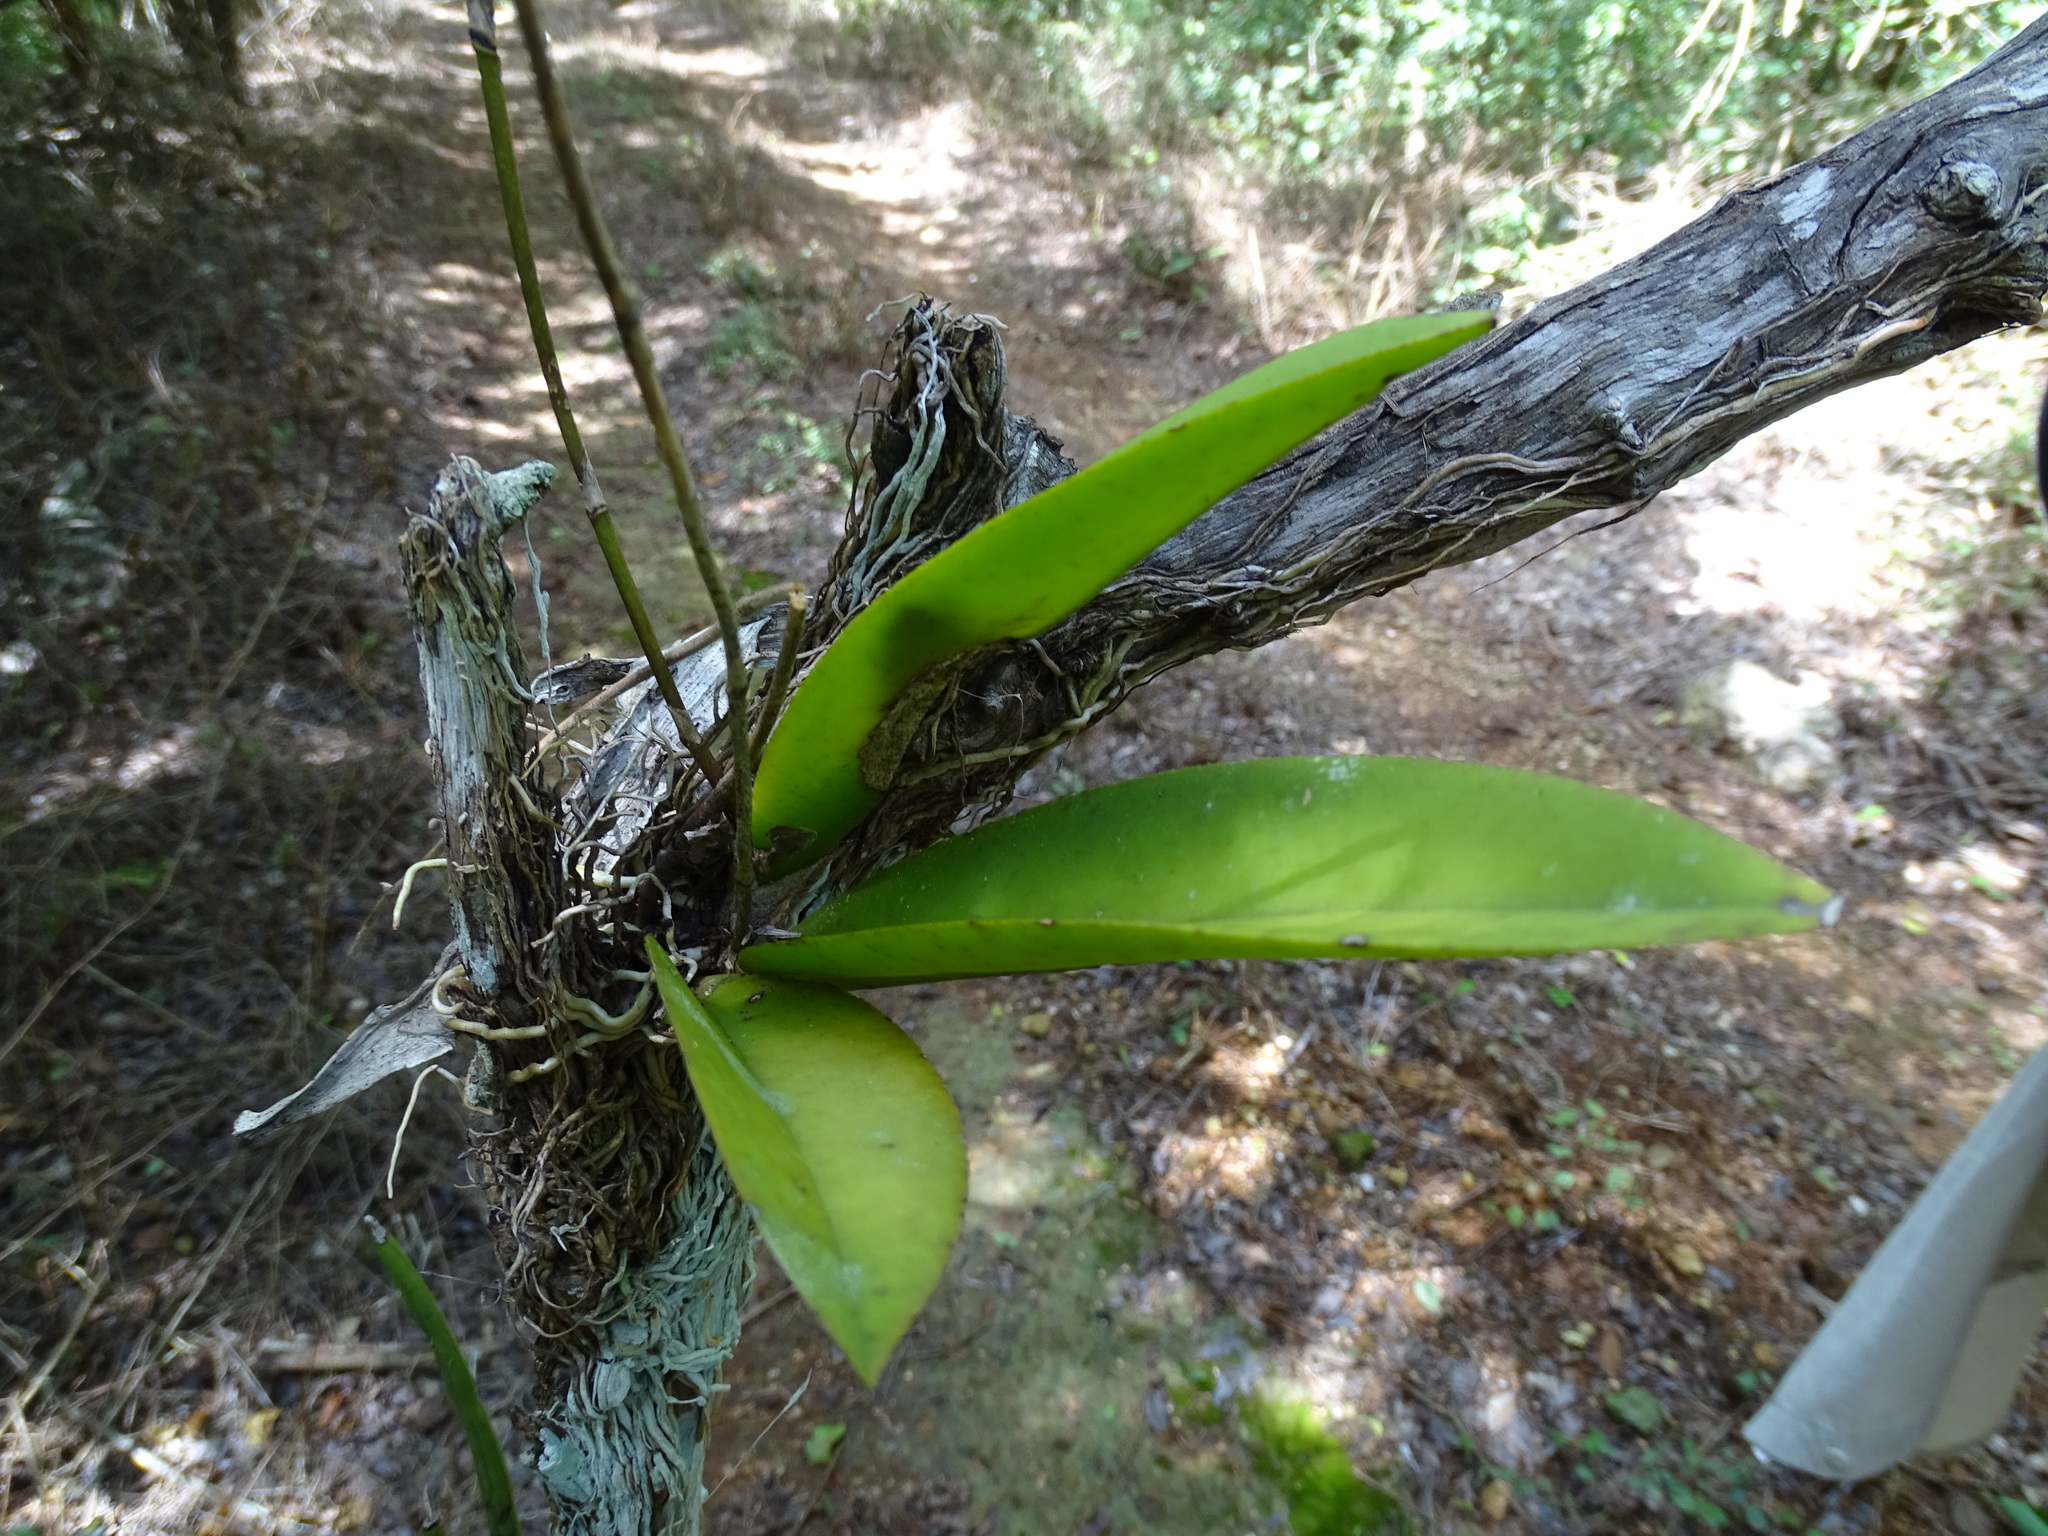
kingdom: Plantae
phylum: Tracheophyta
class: Liliopsida
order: Asparagales
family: Orchidaceae
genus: Trichocentrum
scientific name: Trichocentrum cosymbephorum
